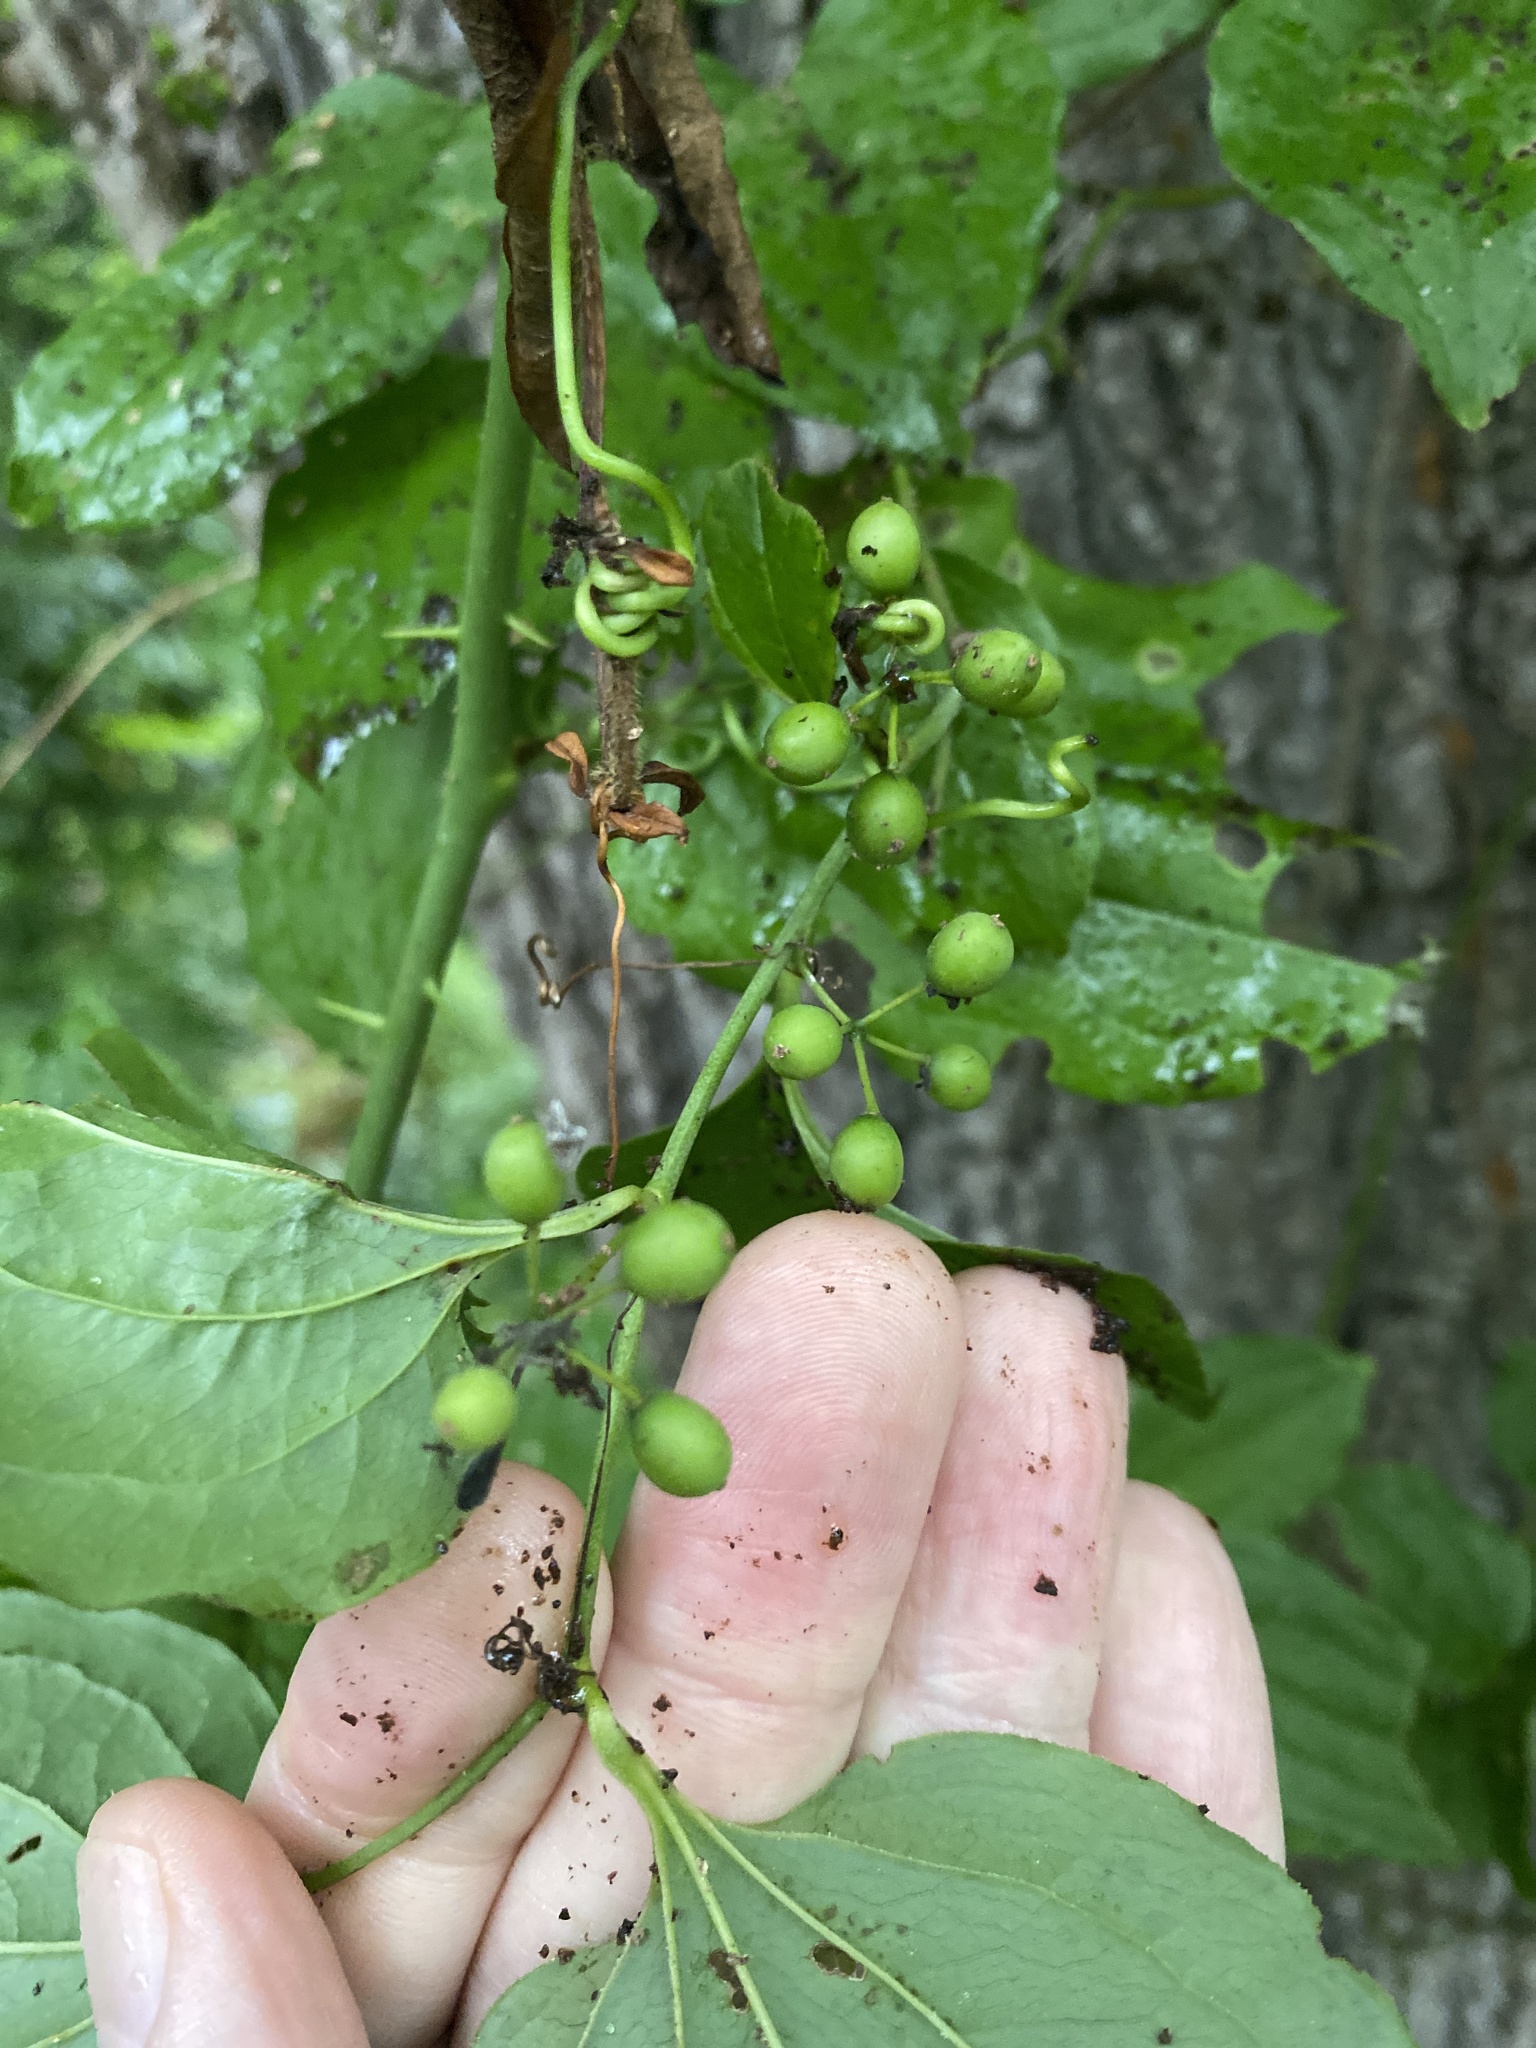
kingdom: Plantae
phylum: Tracheophyta
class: Liliopsida
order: Liliales
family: Smilacaceae
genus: Smilax
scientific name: Smilax tamnoides
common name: Hellfetter
